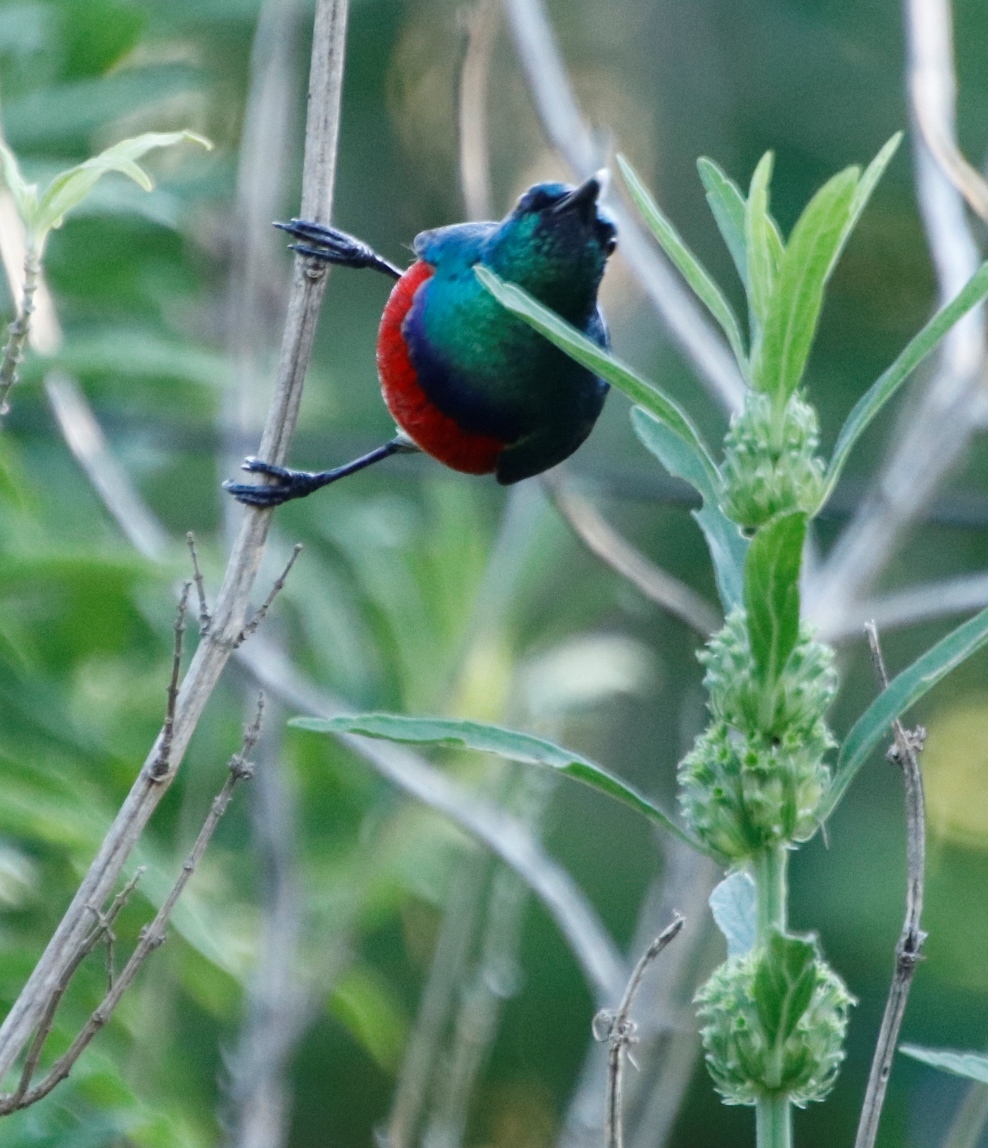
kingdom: Animalia
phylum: Chordata
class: Aves
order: Passeriformes
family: Nectariniidae
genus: Cinnyris
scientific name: Cinnyris afer
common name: Greater double-collared sunbird
